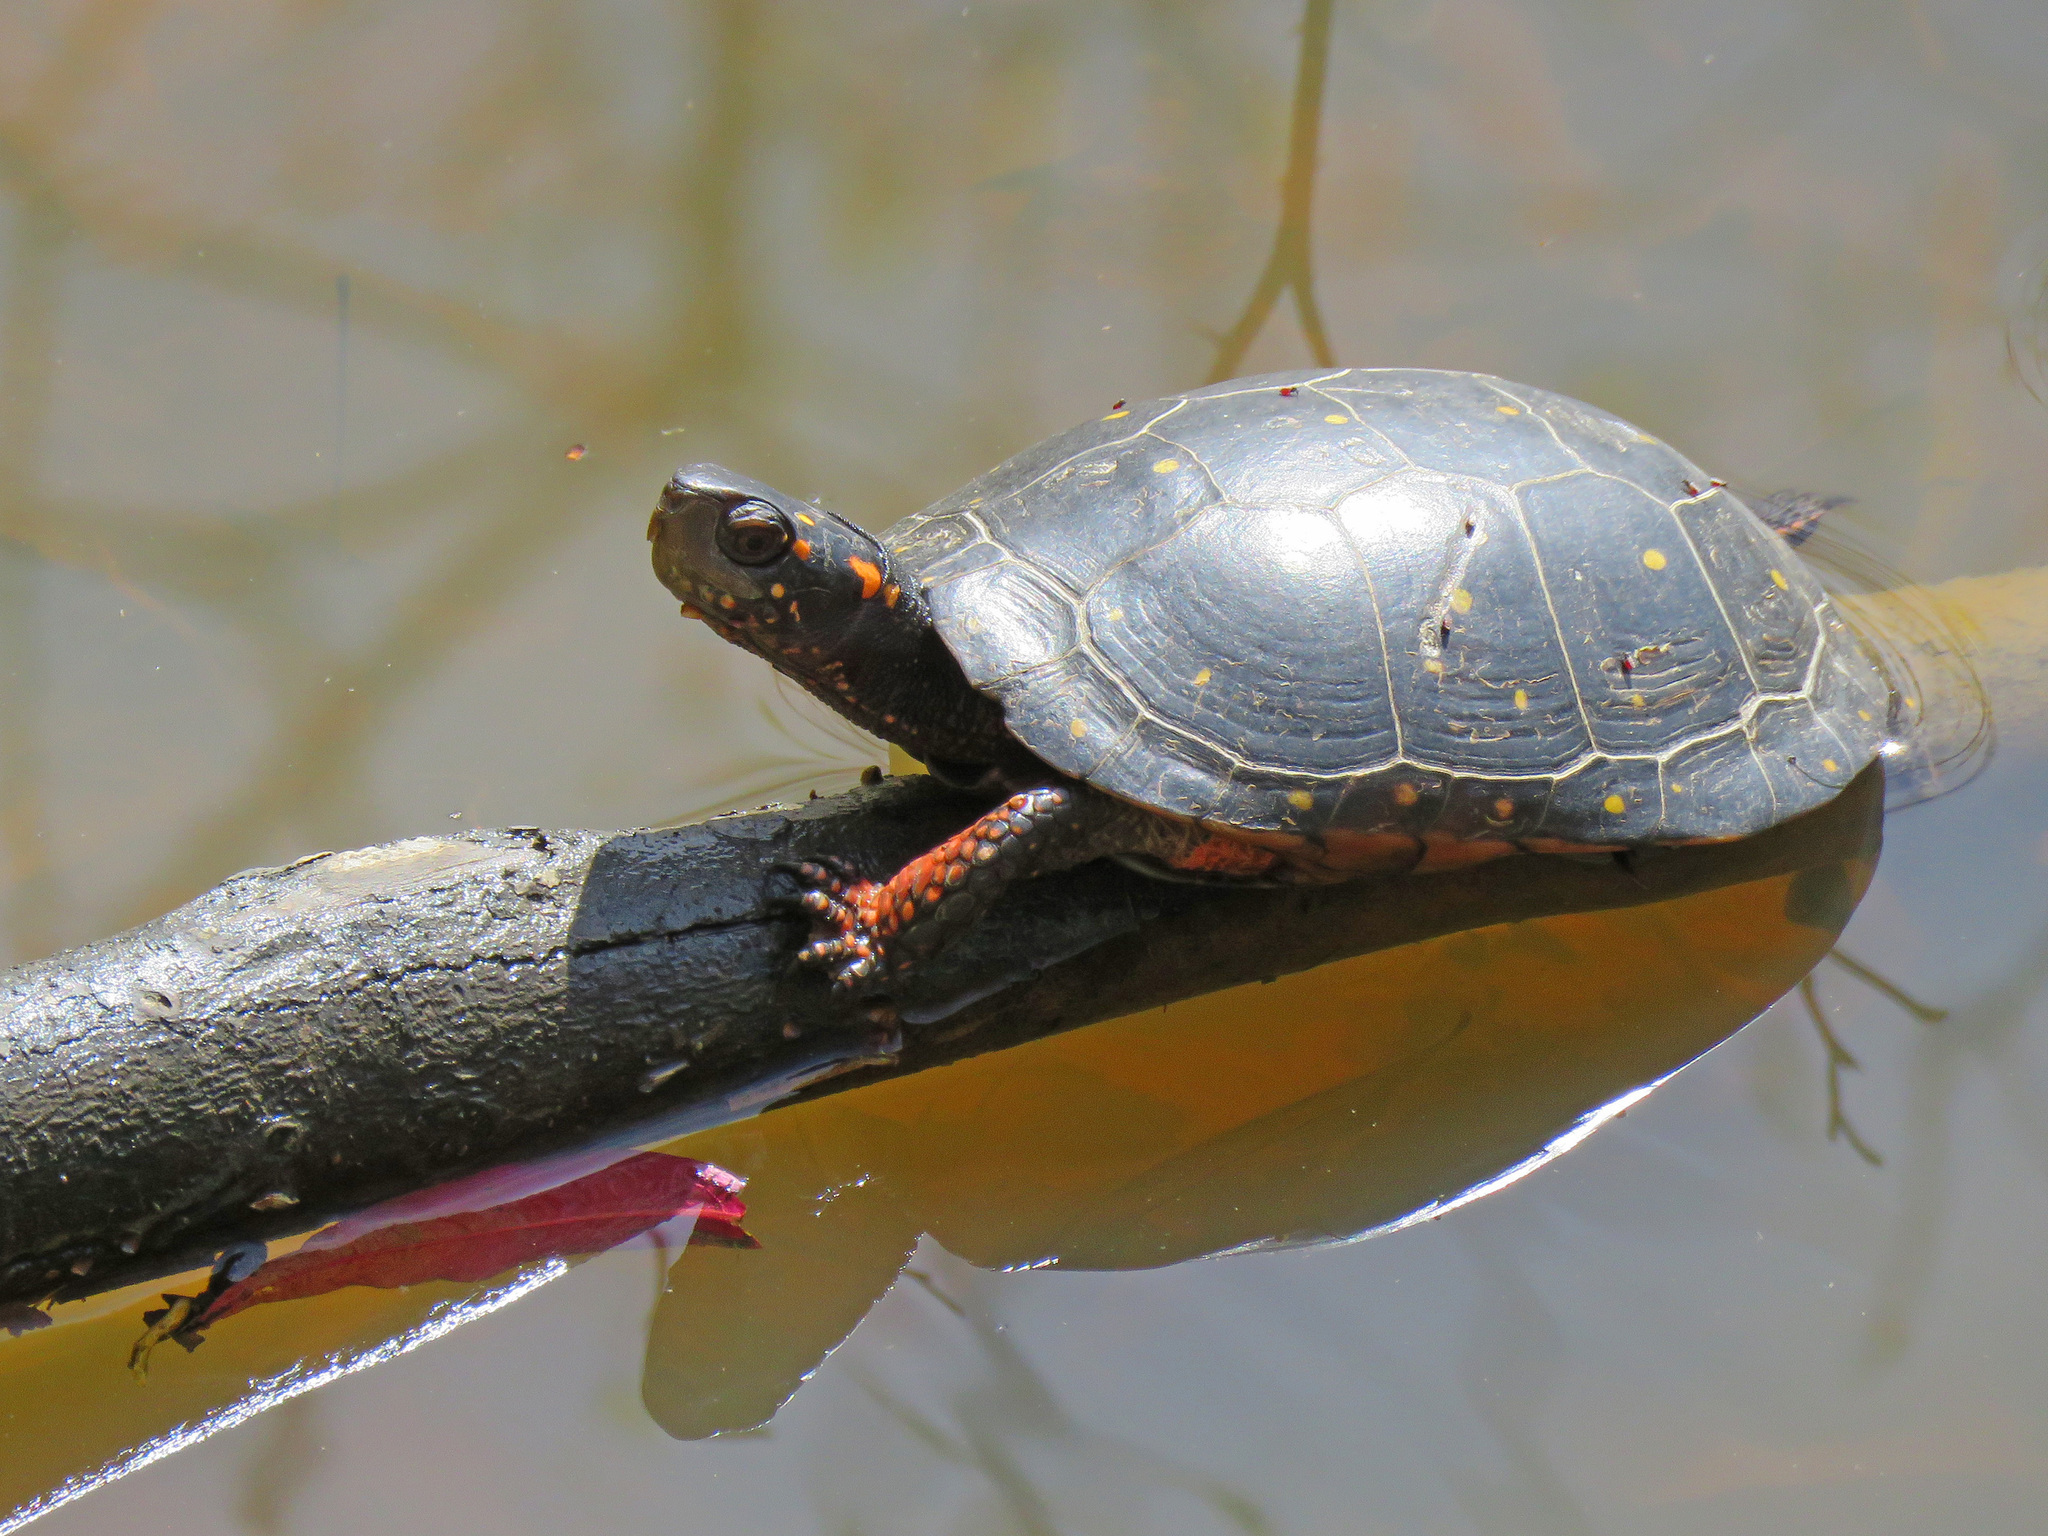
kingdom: Animalia
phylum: Chordata
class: Testudines
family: Emydidae
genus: Clemmys
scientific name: Clemmys guttata
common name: Spotted turtle
